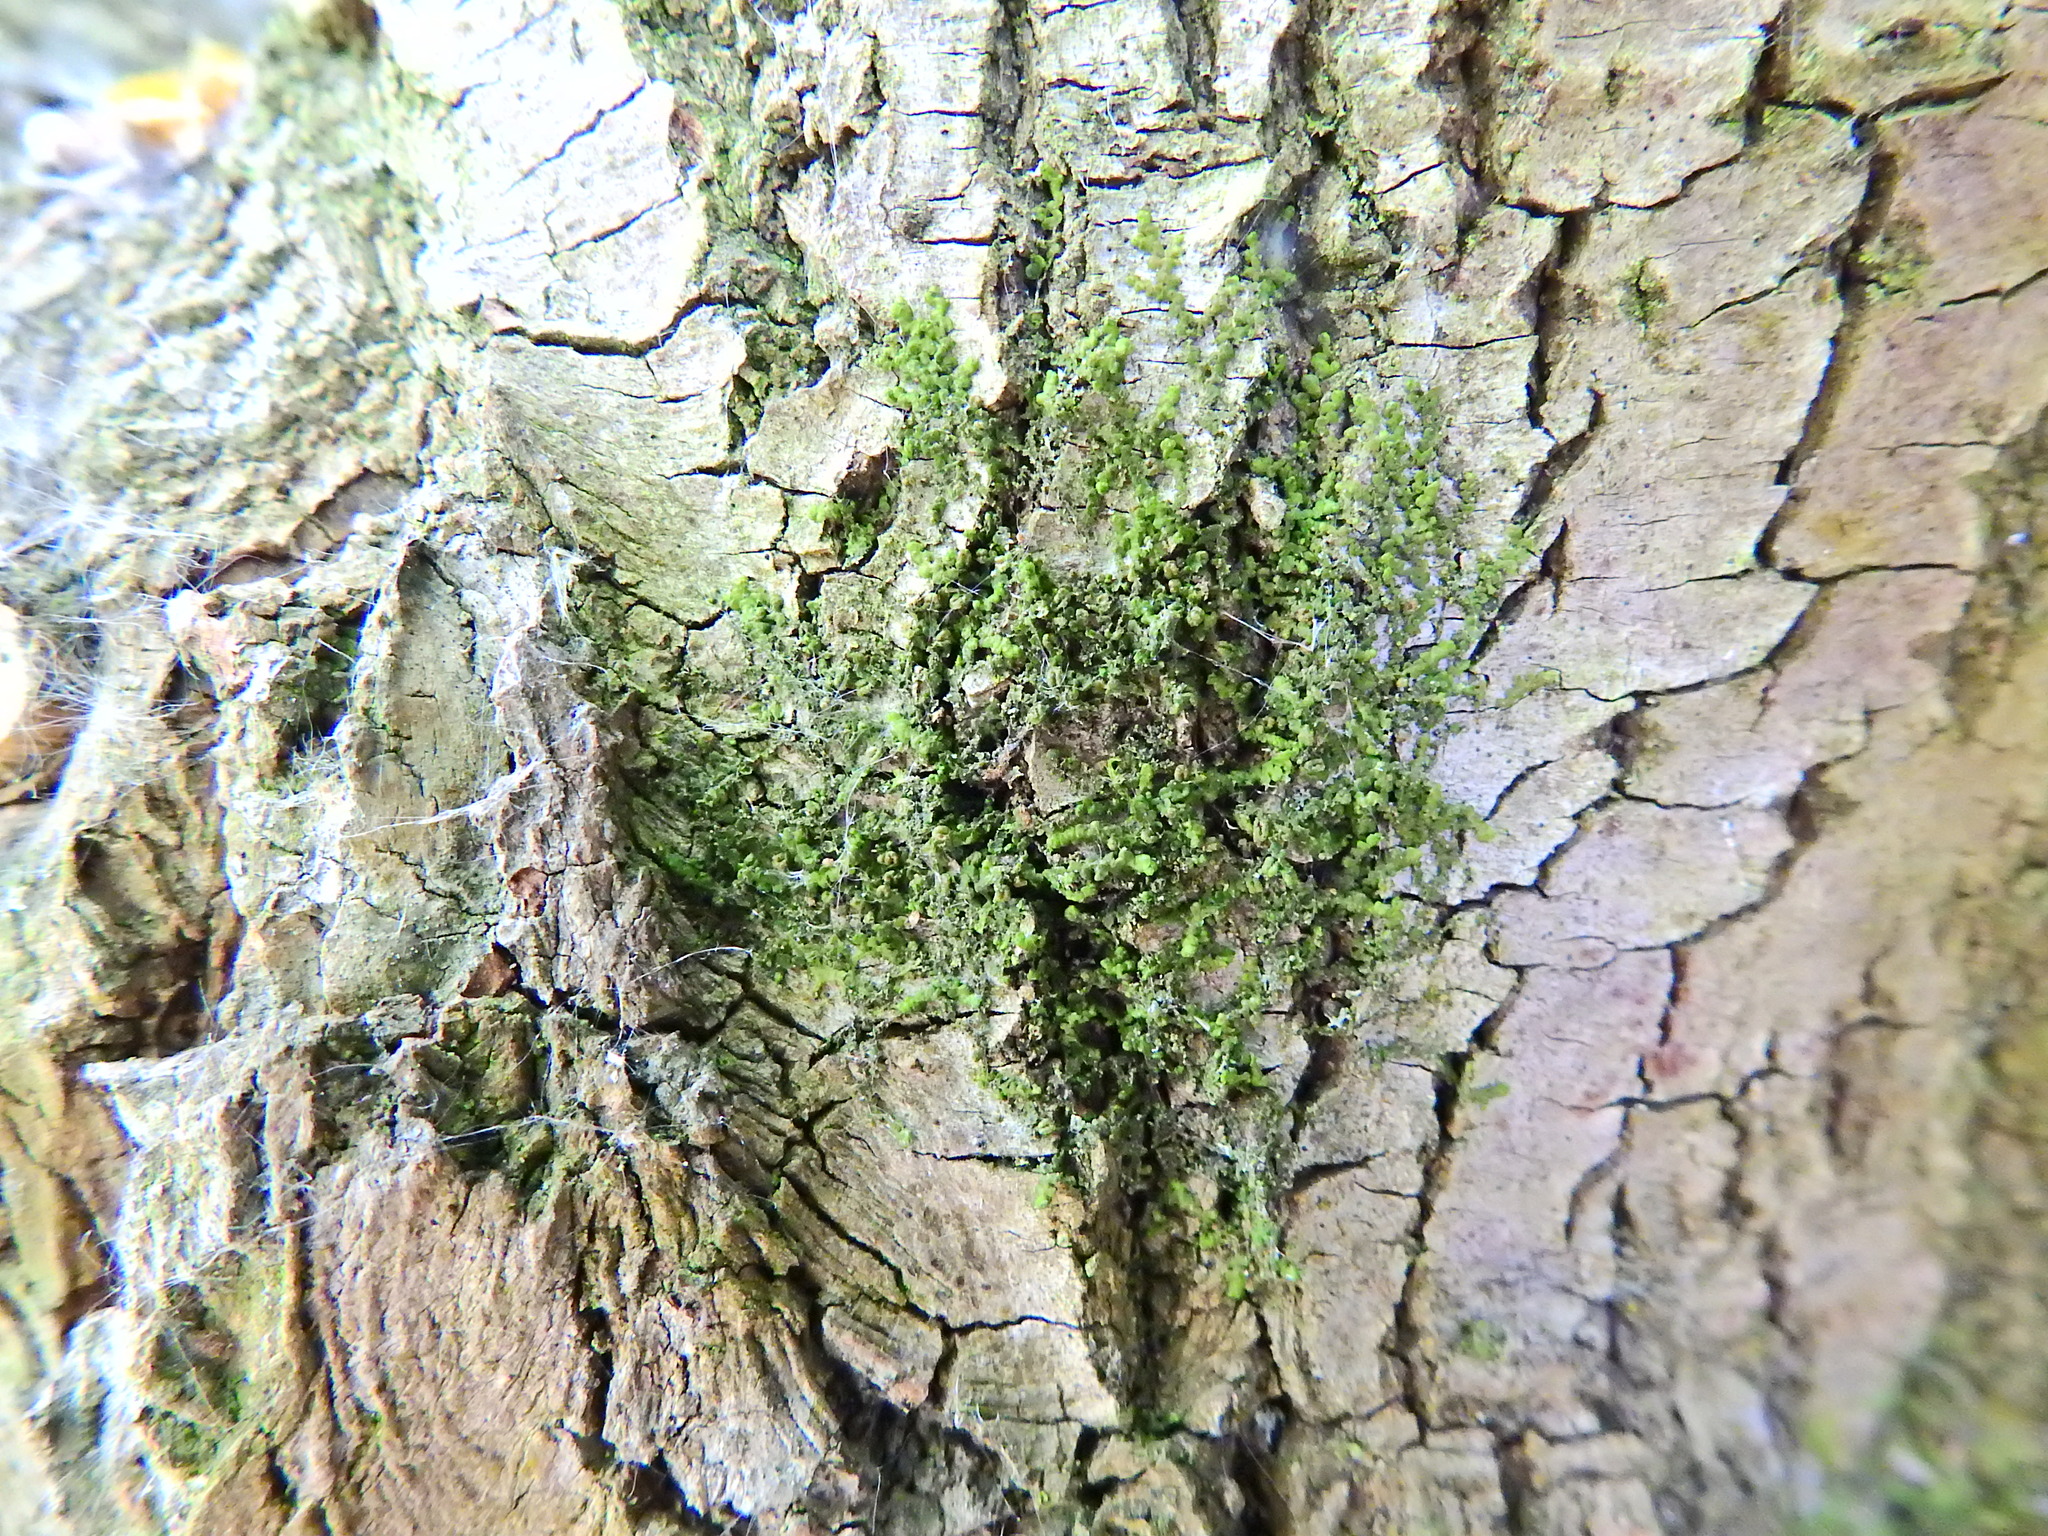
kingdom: Plantae
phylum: Marchantiophyta
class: Jungermanniopsida
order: Porellales
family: Frullaniaceae
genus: Frullania
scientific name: Frullania dilatata
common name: Dilated scalewort
